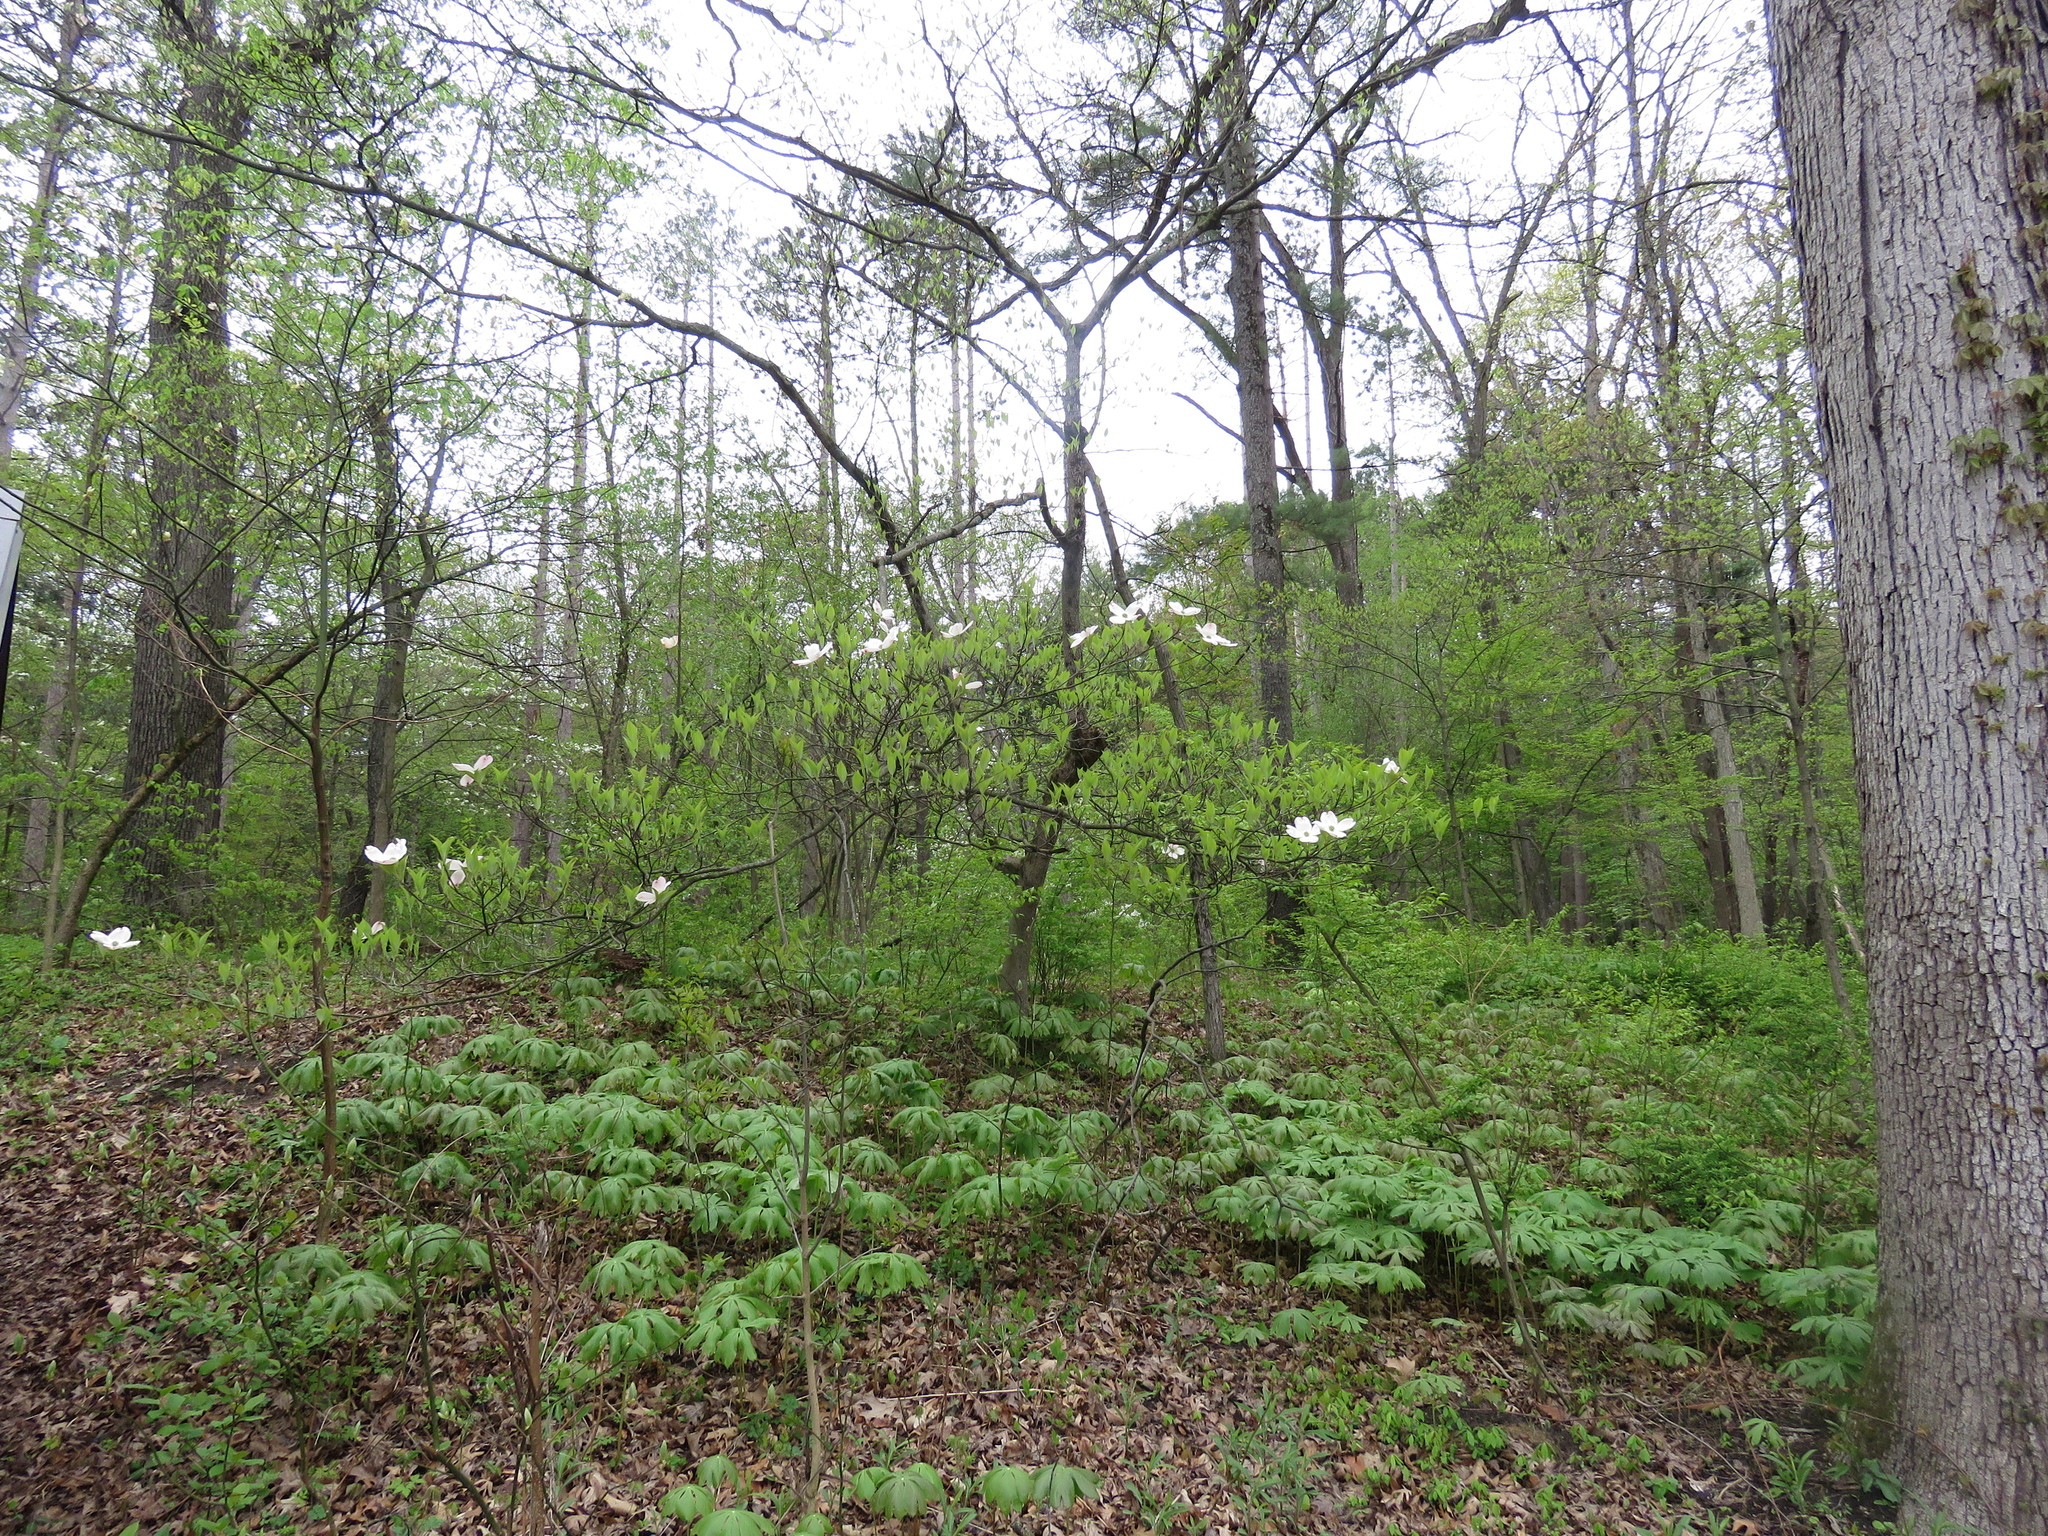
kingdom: Plantae
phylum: Tracheophyta
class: Magnoliopsida
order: Cornales
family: Cornaceae
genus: Cornus
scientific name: Cornus florida
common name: Flowering dogwood
